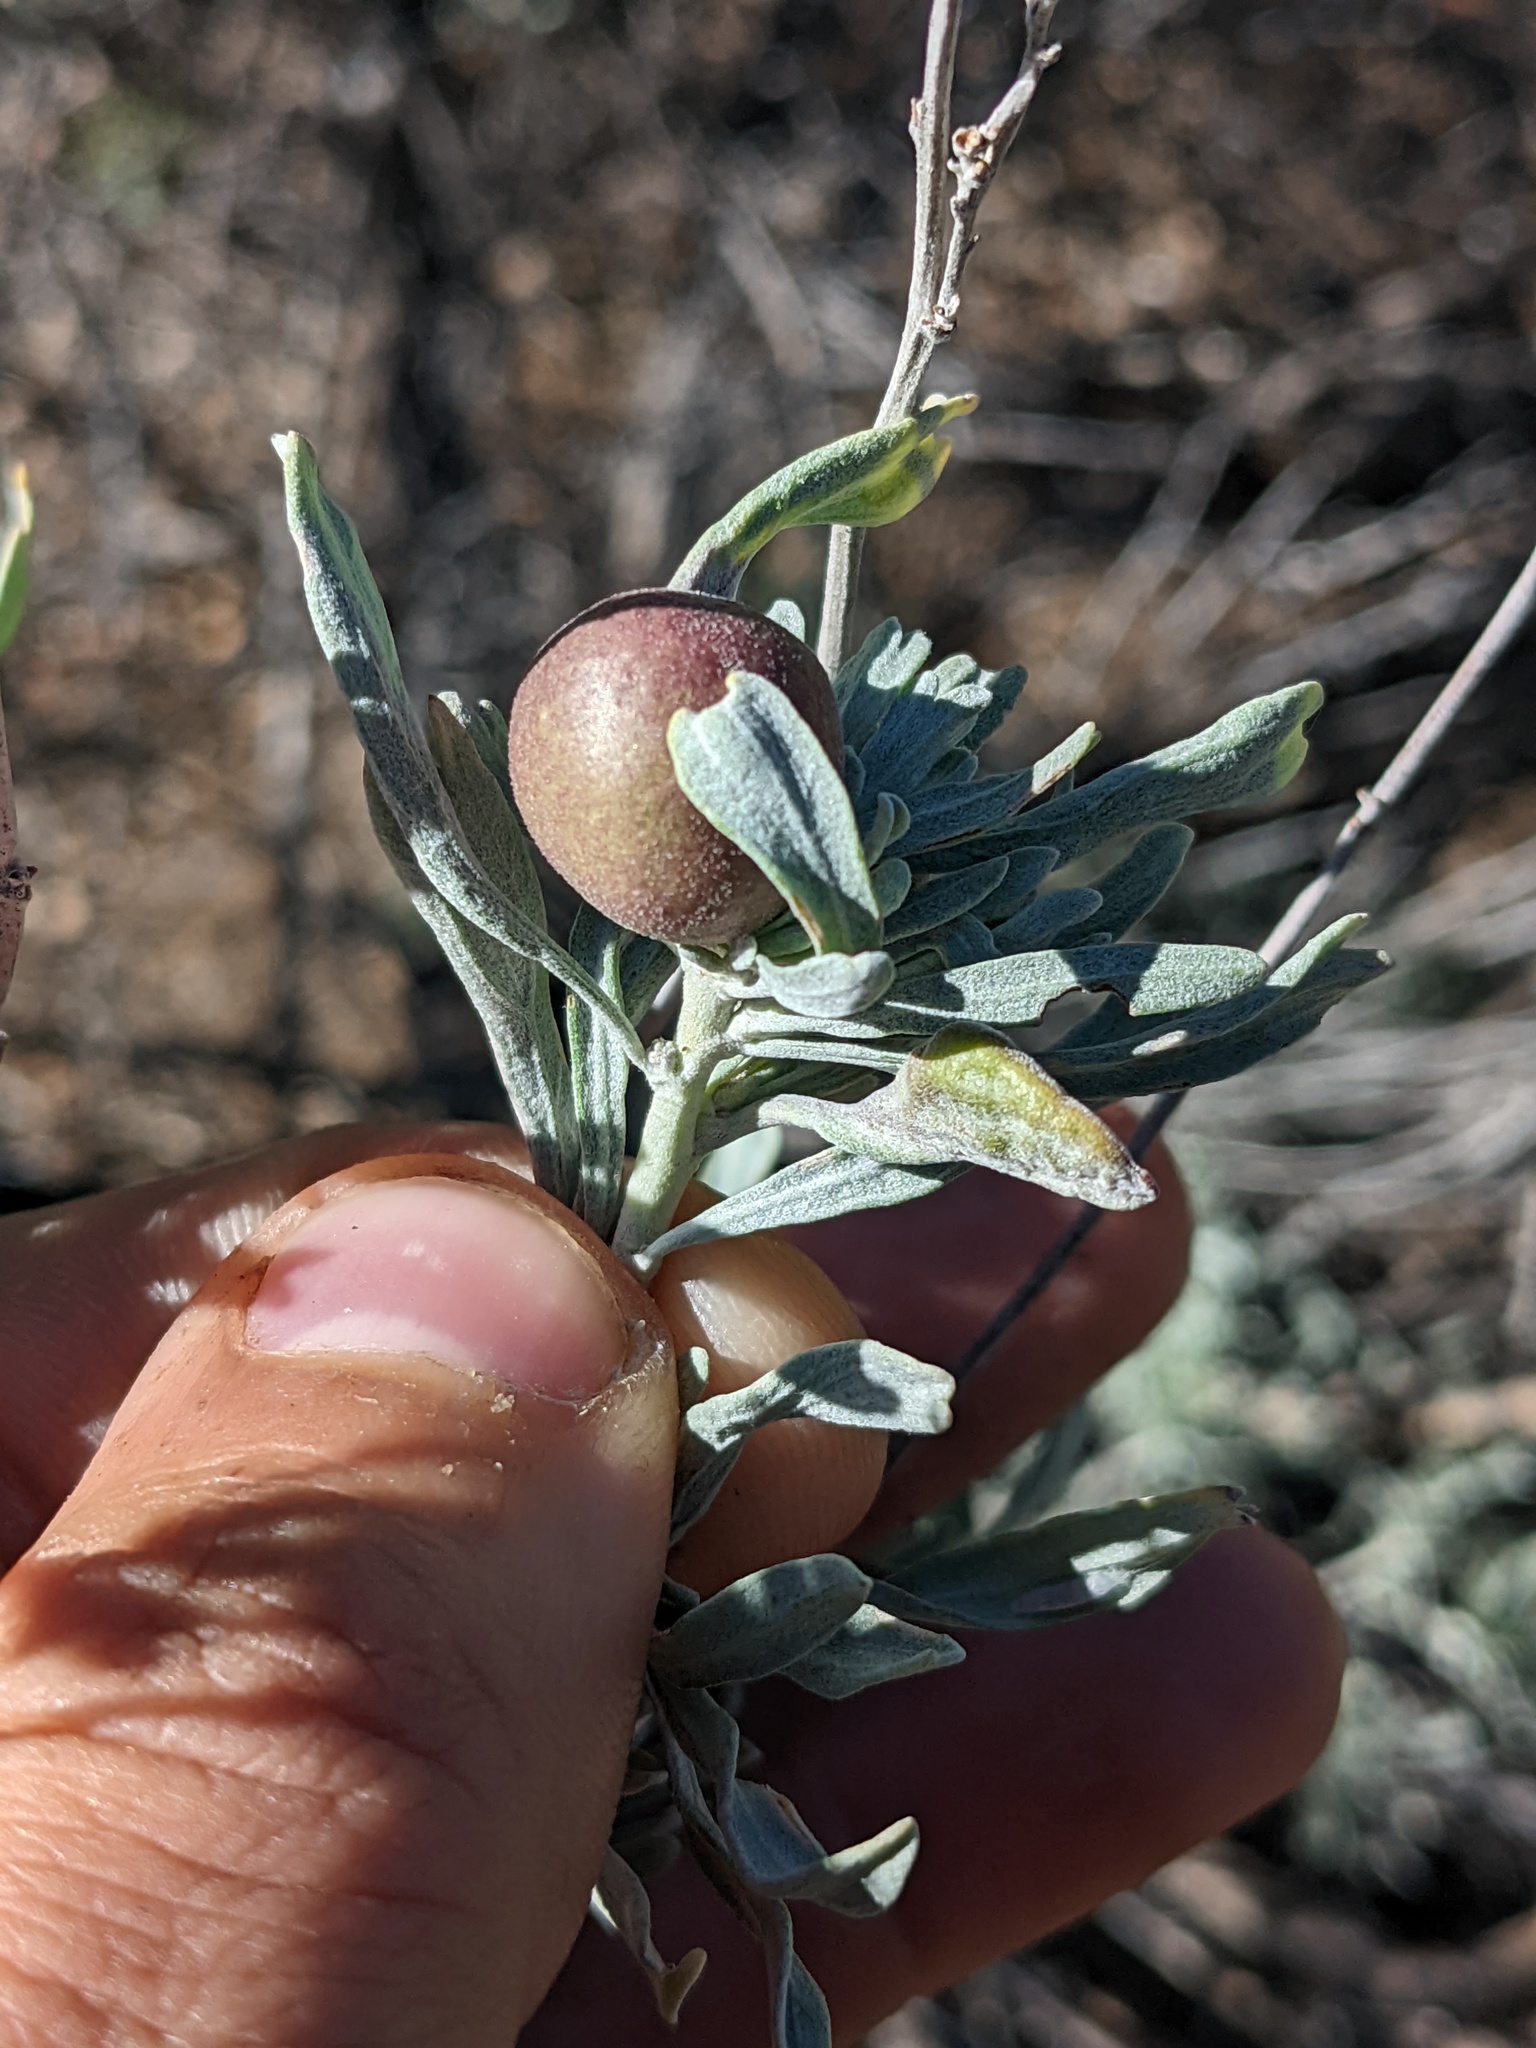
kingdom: Animalia
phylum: Arthropoda
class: Insecta
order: Diptera
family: Cecidomyiidae
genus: Rhopalomyia
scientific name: Rhopalomyia pomum
